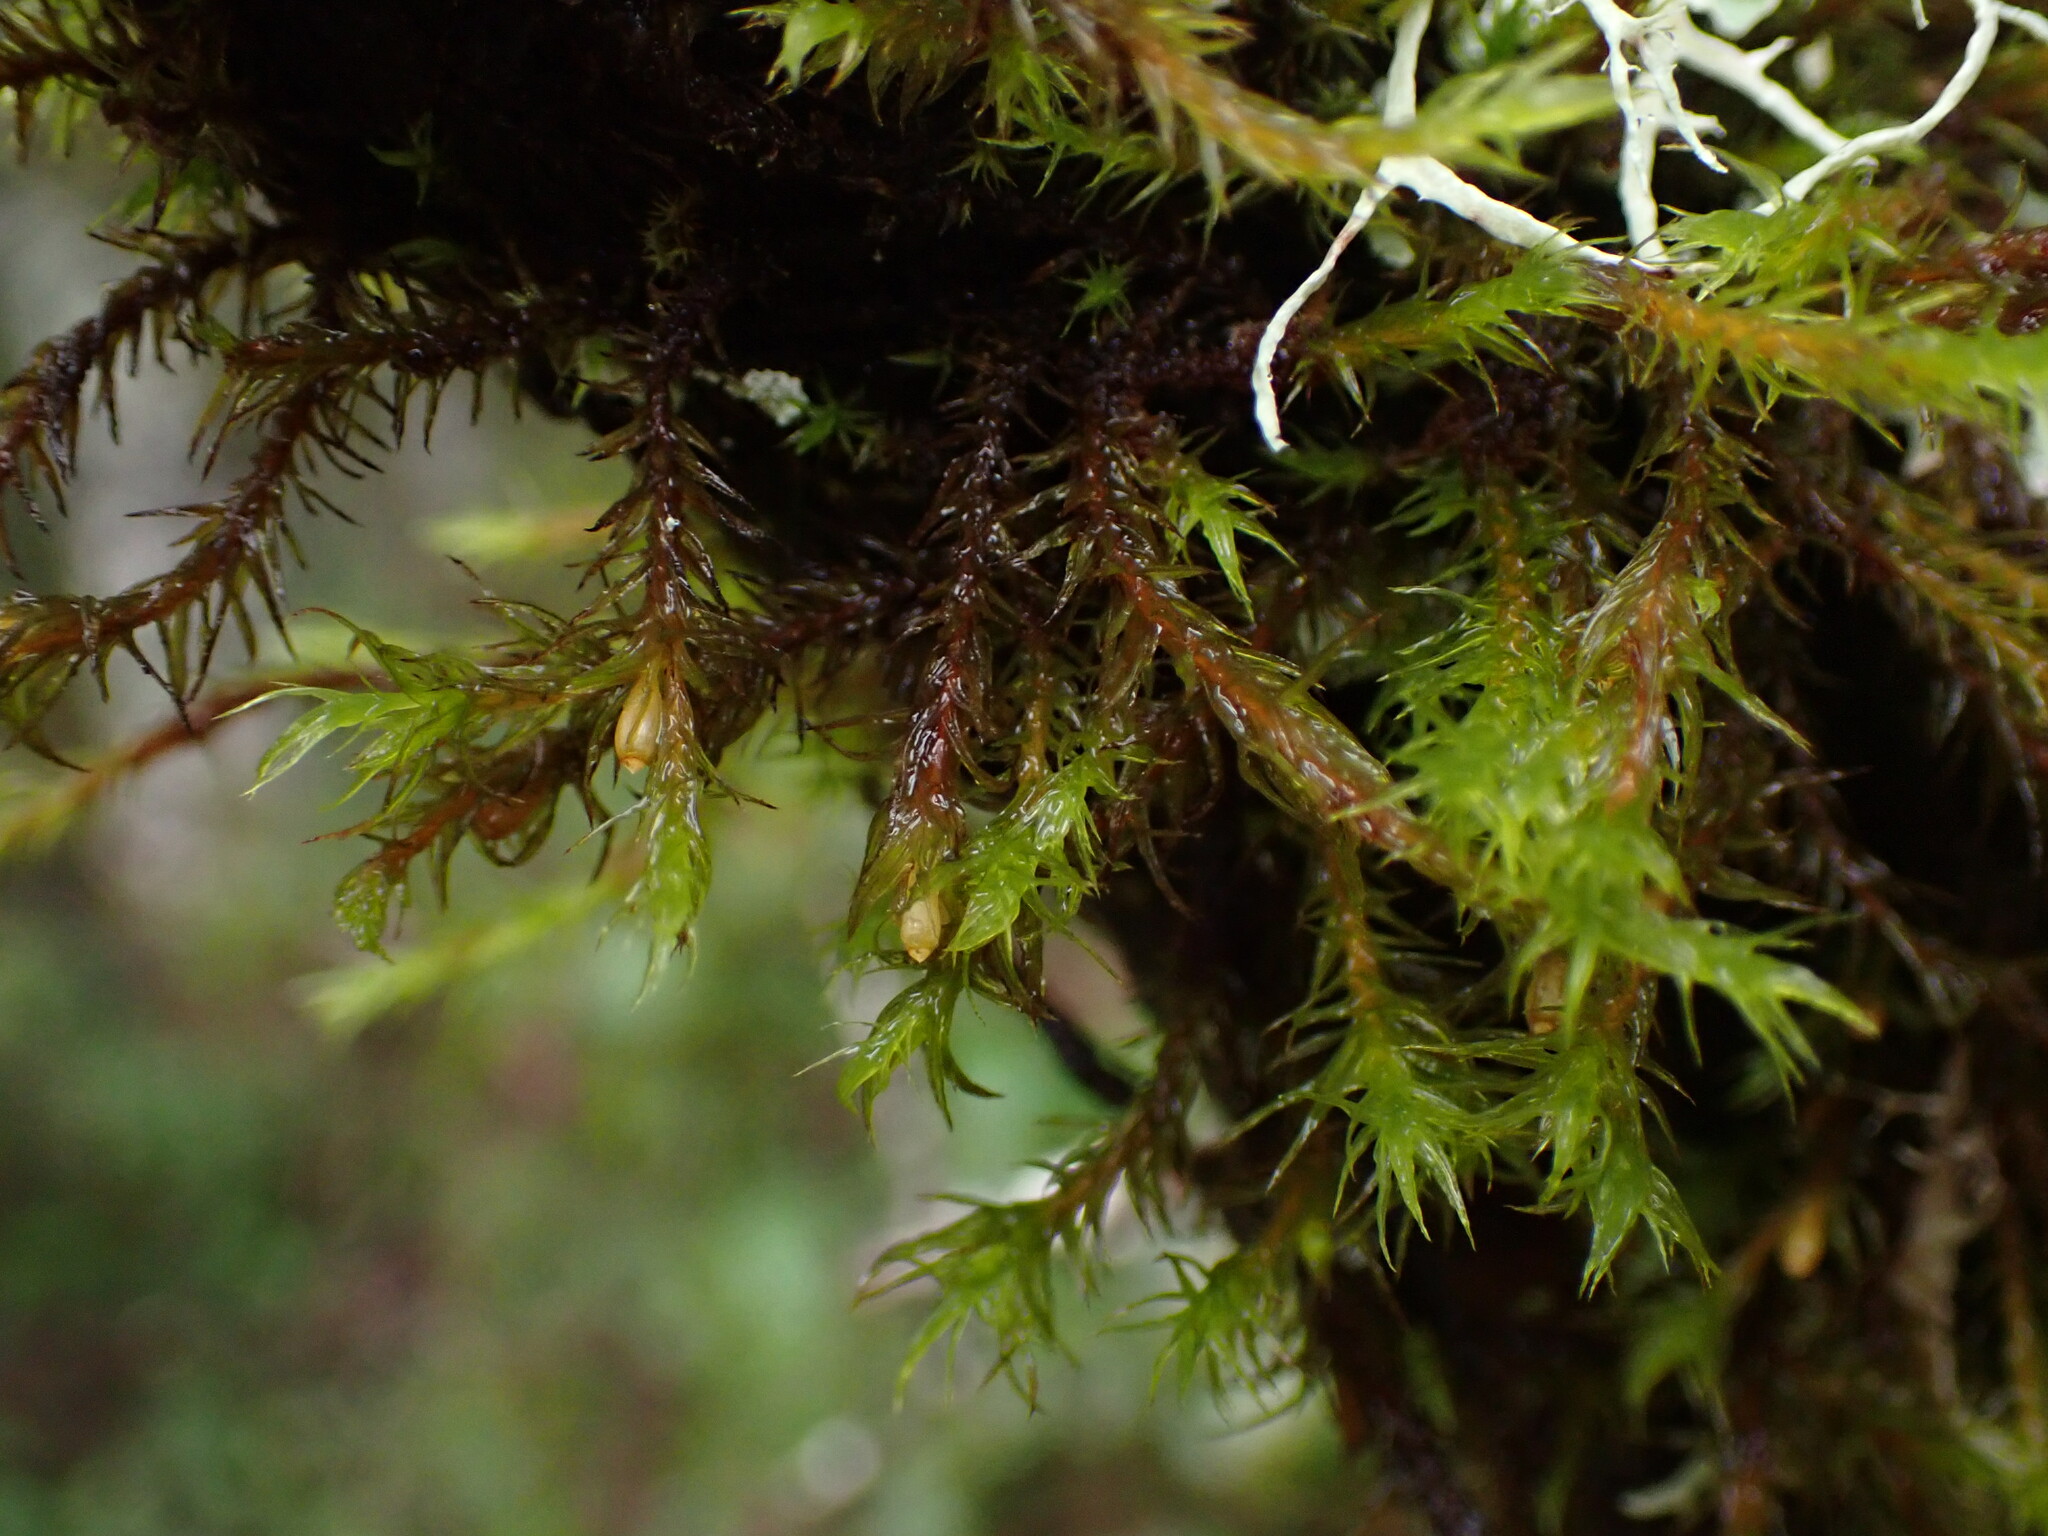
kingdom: Plantae
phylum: Bryophyta
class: Bryopsida
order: Orthotrichales
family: Orthotrichaceae
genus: Pulvigera
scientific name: Pulvigera papillosa
